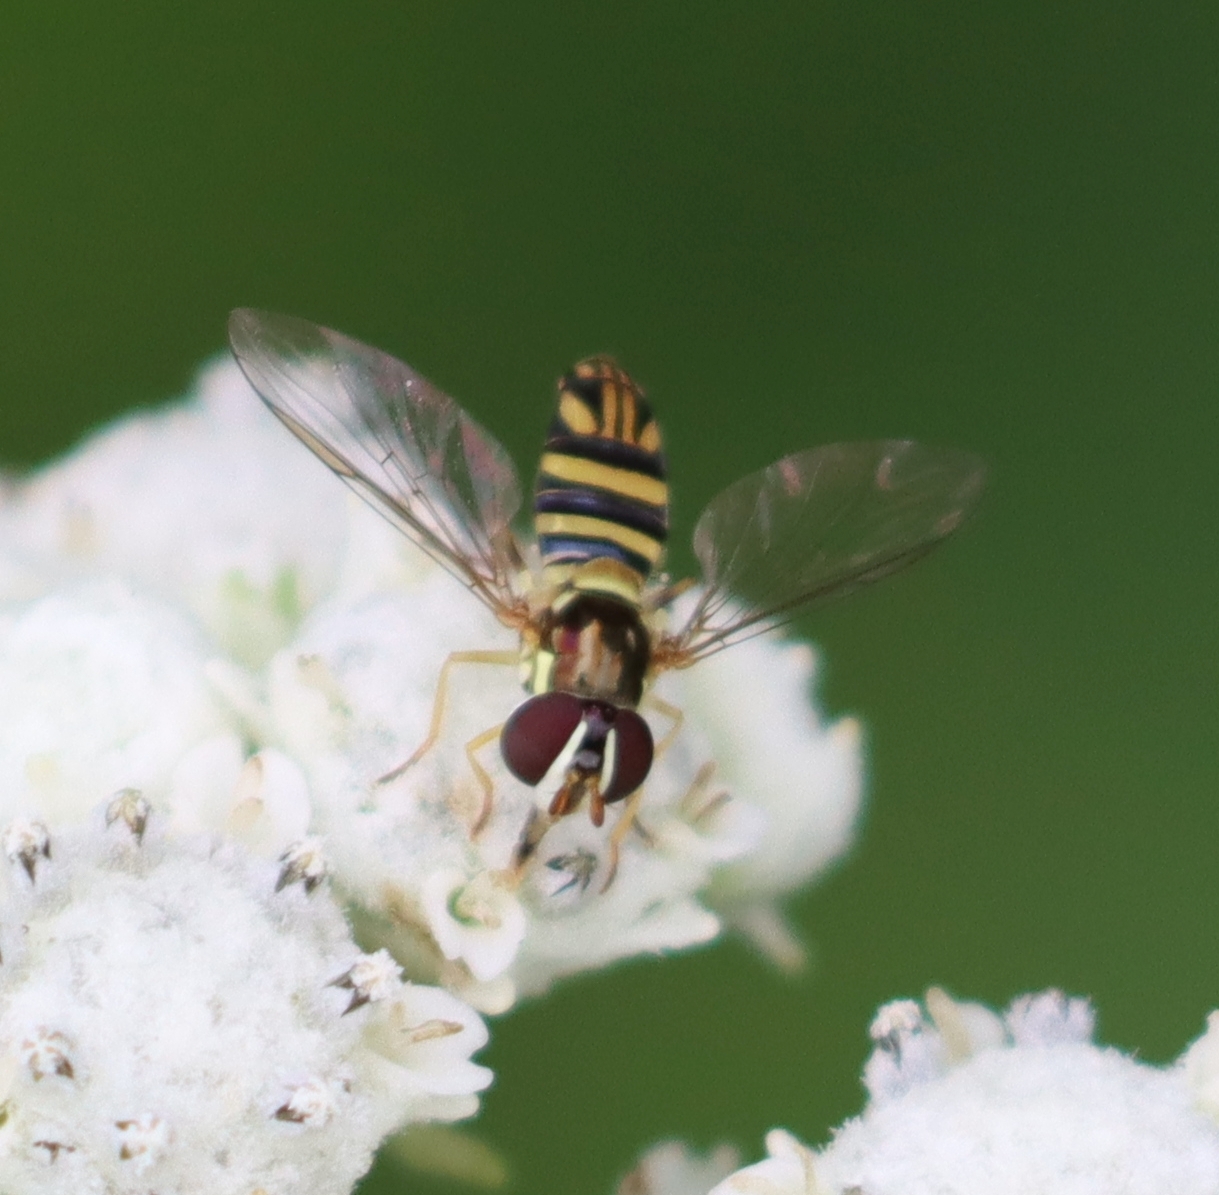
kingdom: Animalia
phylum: Arthropoda
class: Insecta
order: Diptera
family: Syrphidae
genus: Allograpta
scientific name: Allograpta obliqua
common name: Common oblique syrphid
